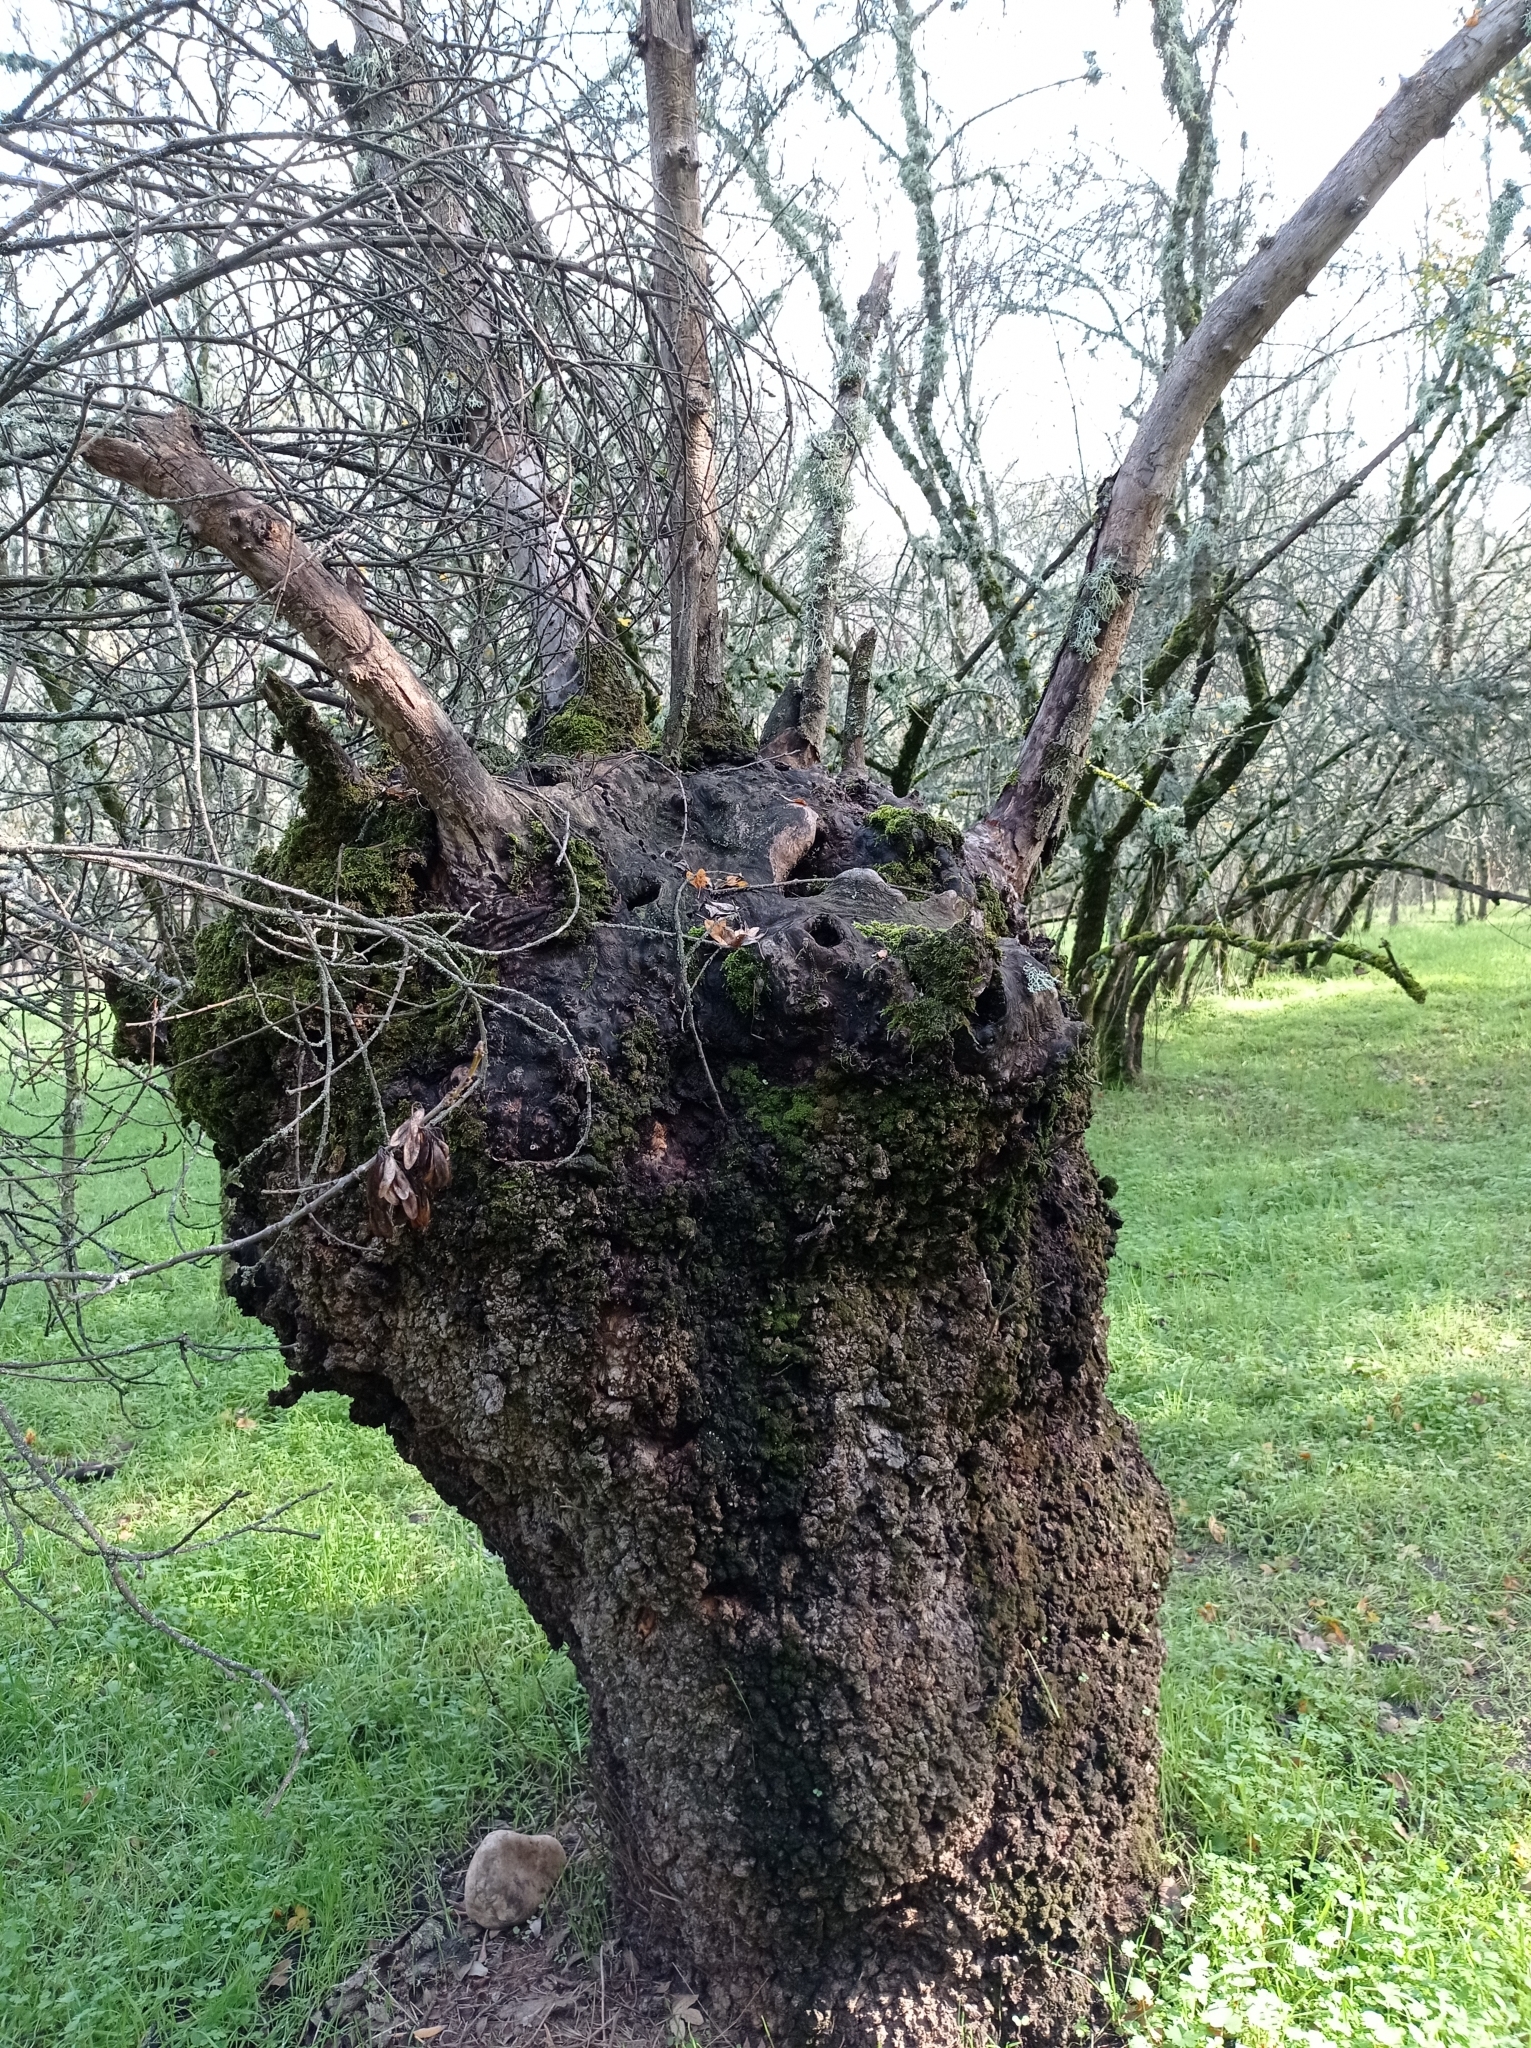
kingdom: Plantae
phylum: Tracheophyta
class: Magnoliopsida
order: Lamiales
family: Oleaceae
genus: Fraxinus
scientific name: Fraxinus angustifolia
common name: Narrow-leafed ash
